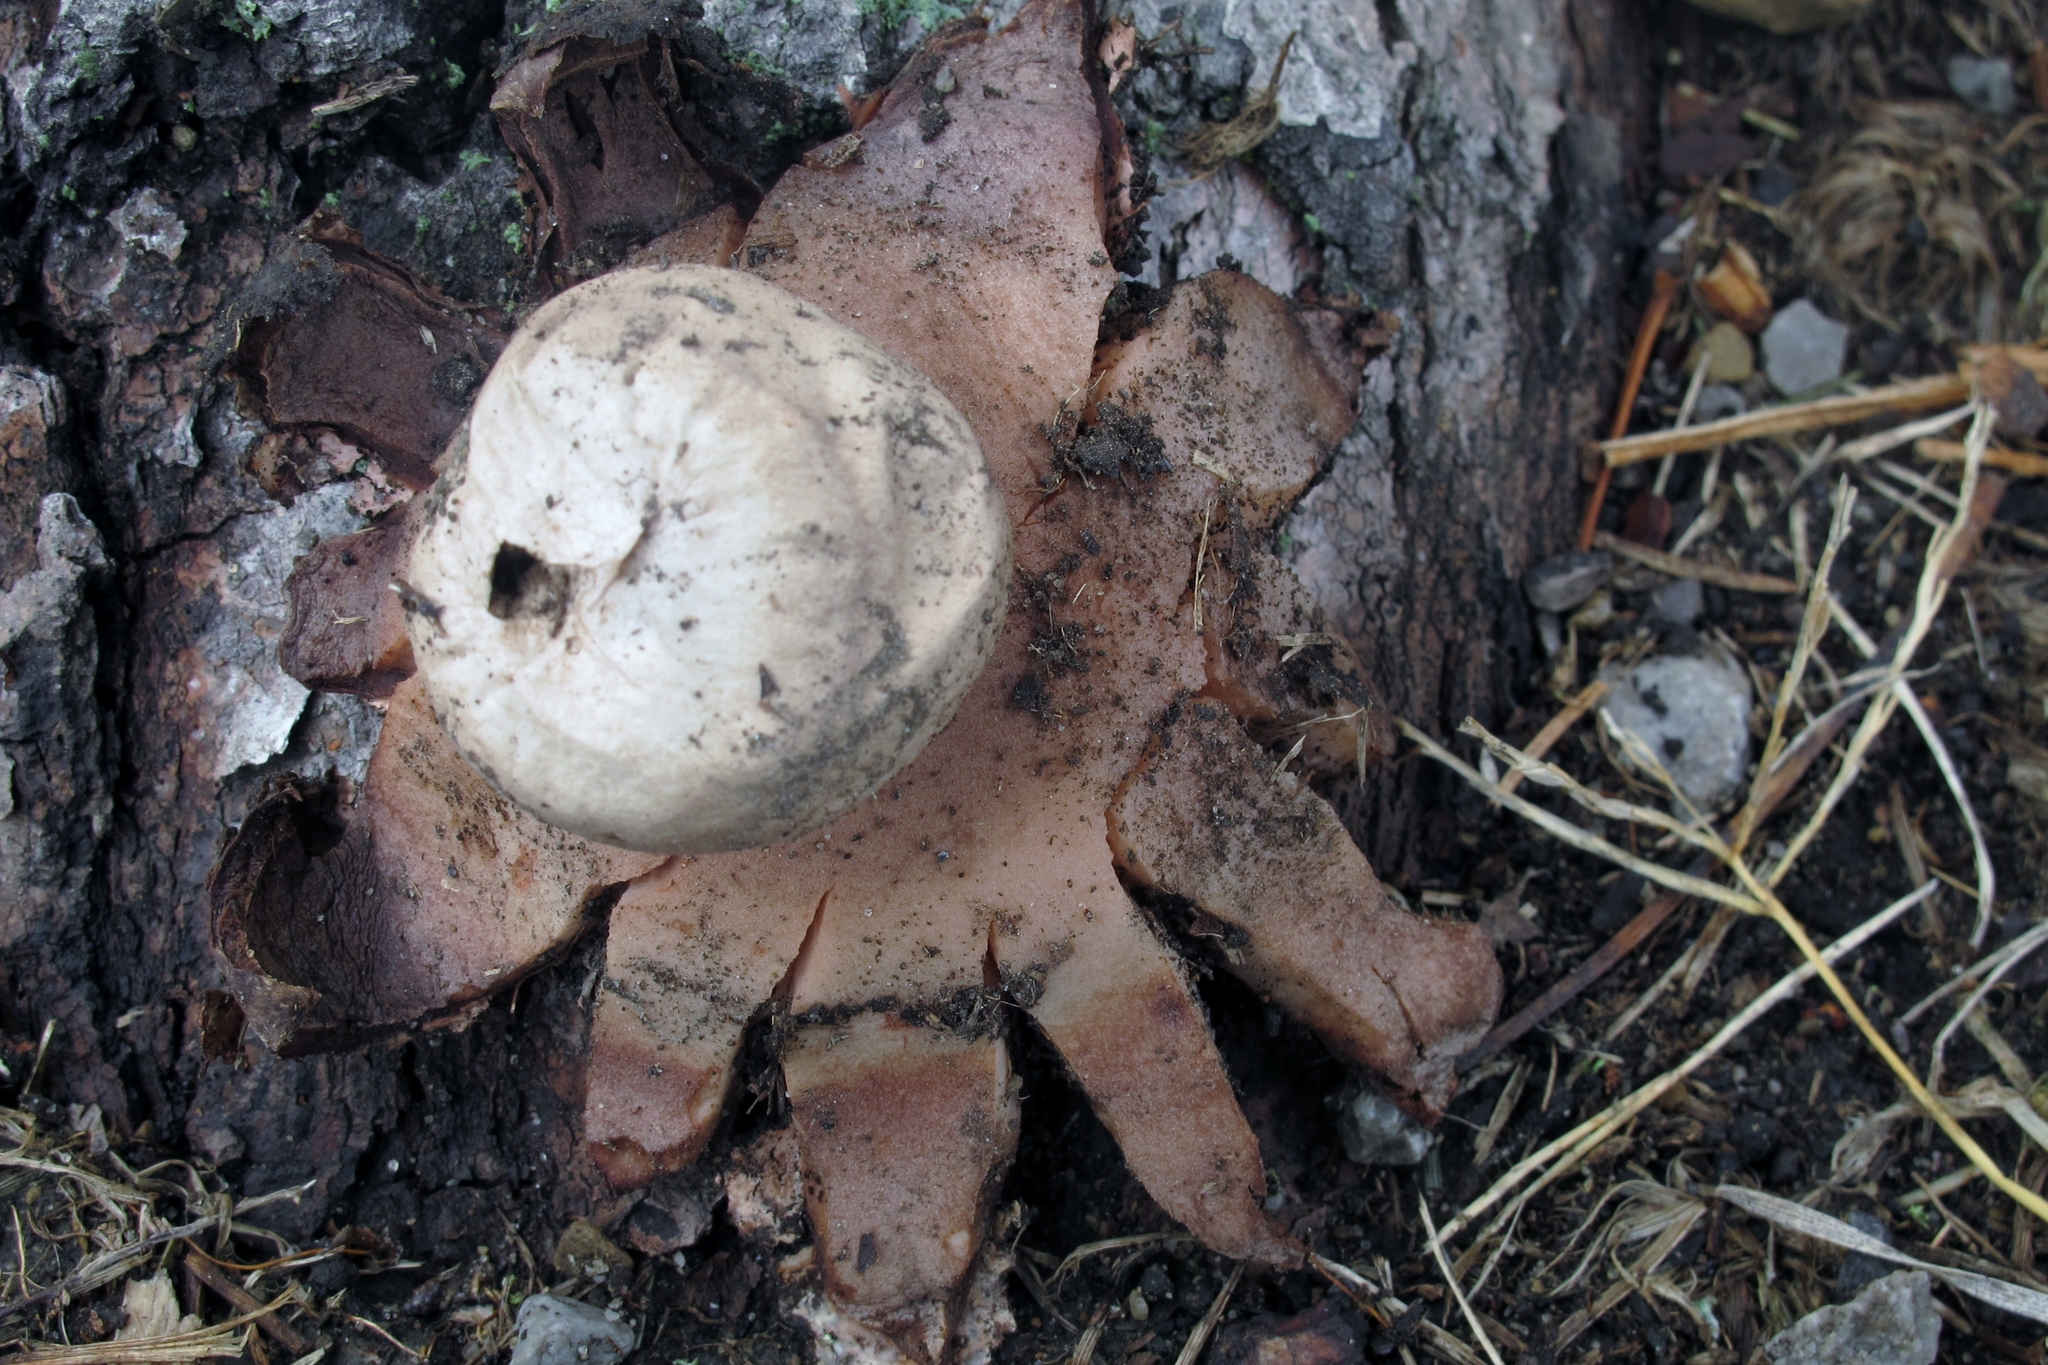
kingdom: Fungi
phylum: Basidiomycota
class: Agaricomycetes
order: Geastrales
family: Geastraceae
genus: Geastrum
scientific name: Geastrum rufescens
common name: Rosy earthstar
